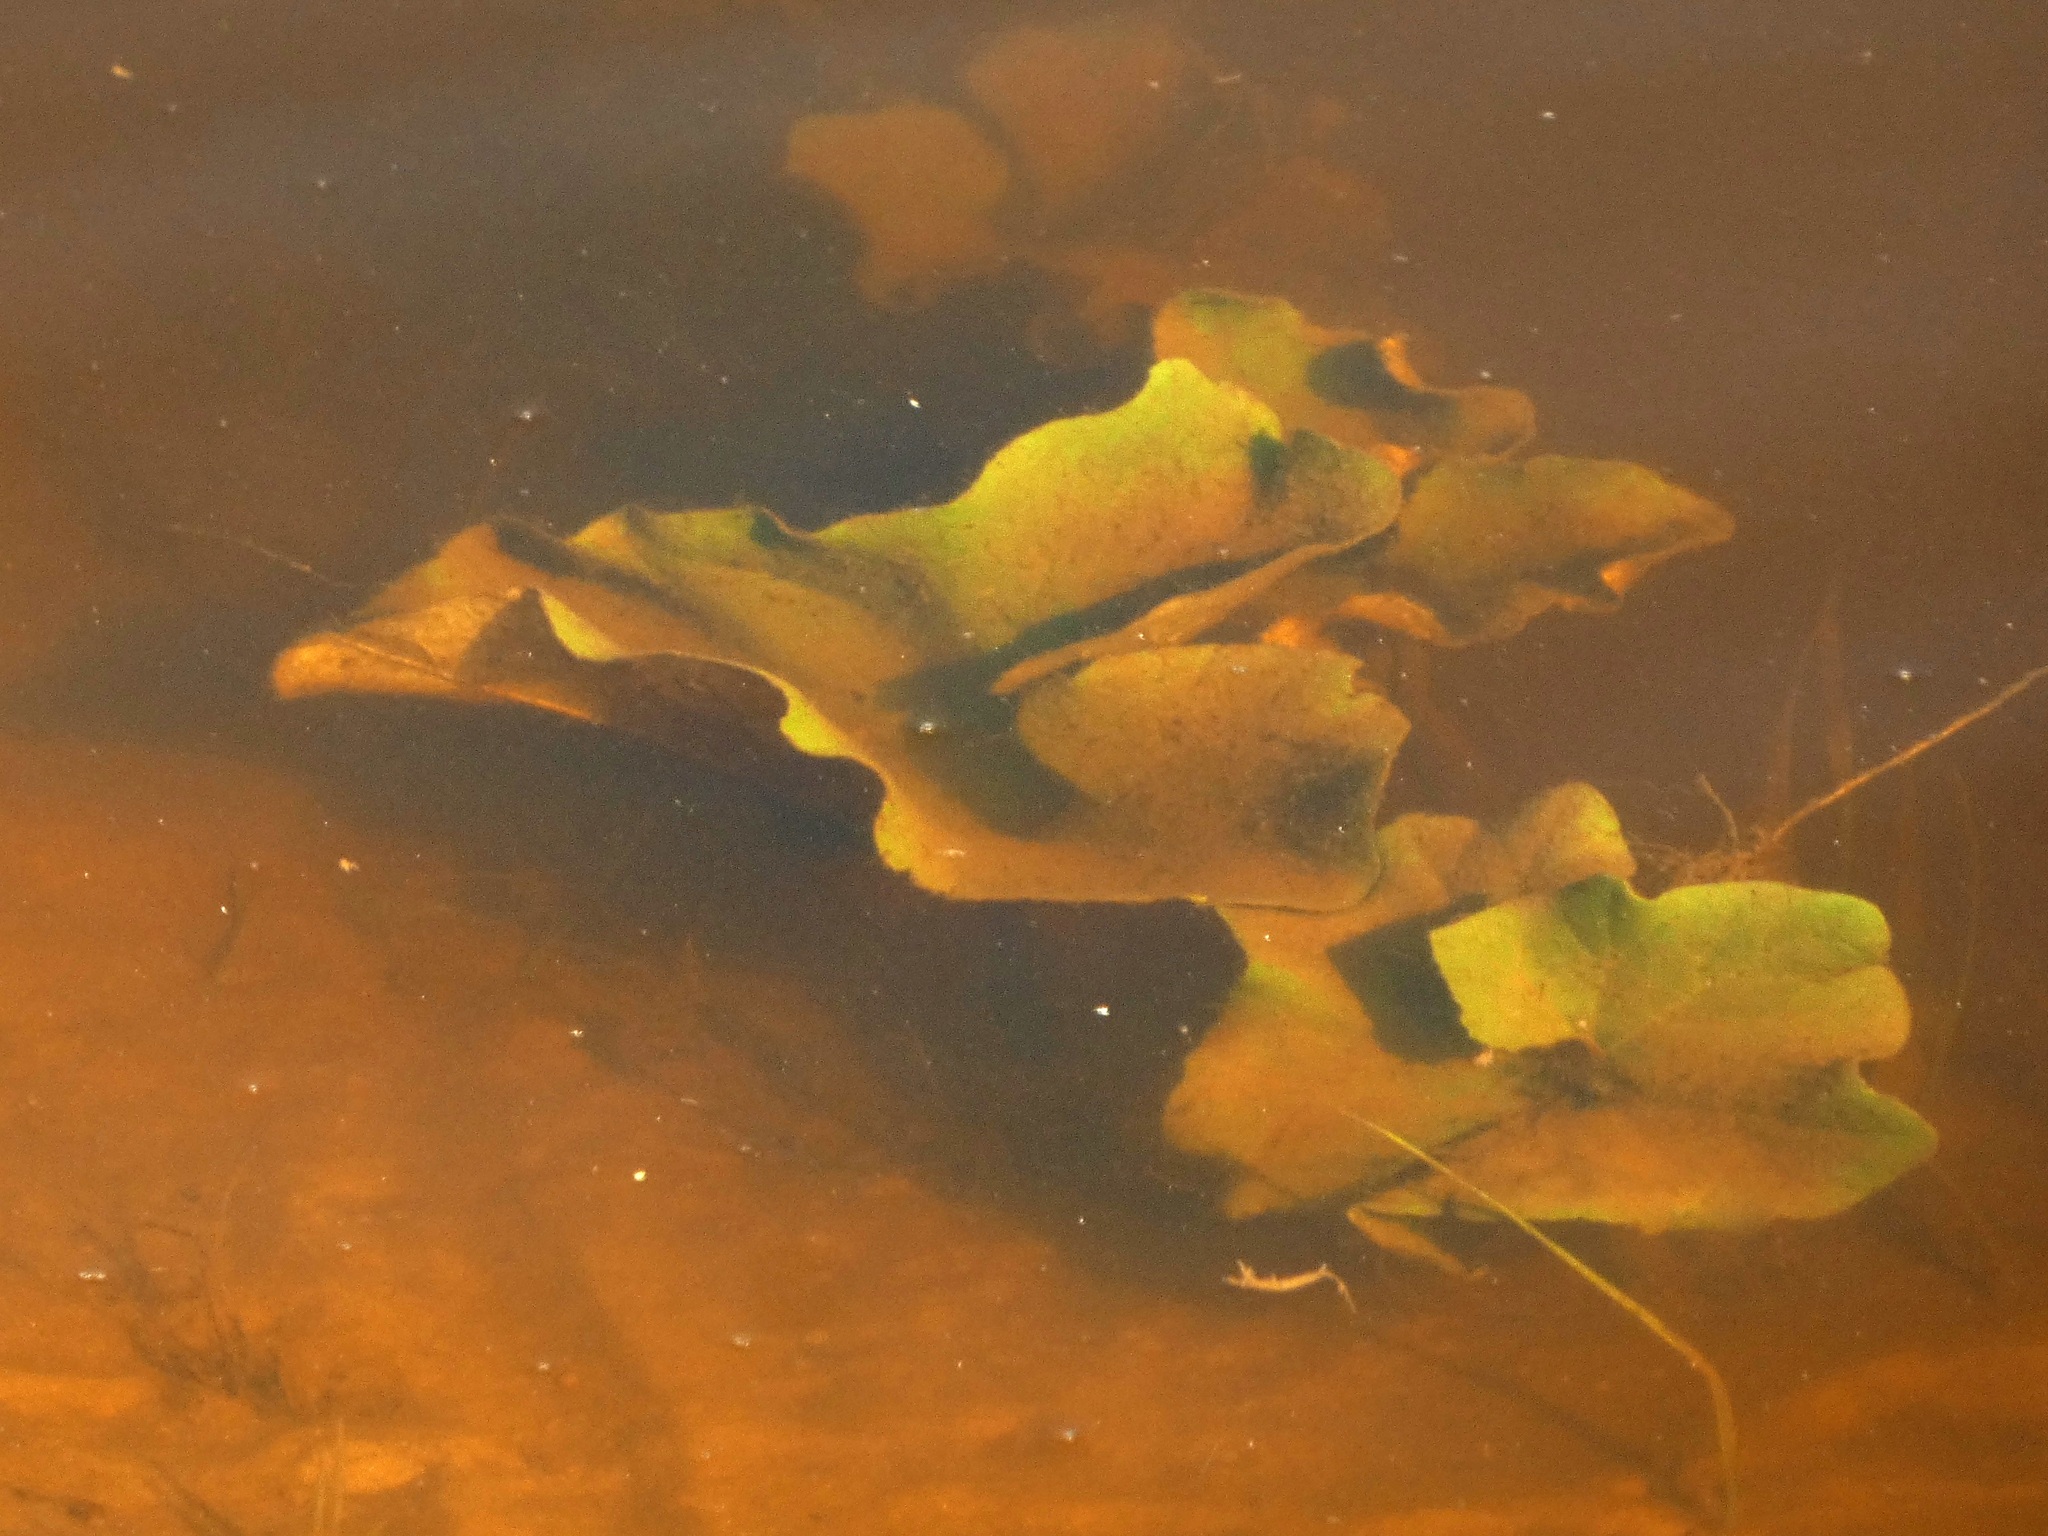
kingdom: Plantae
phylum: Tracheophyta
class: Magnoliopsida
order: Nymphaeales
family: Nymphaeaceae
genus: Nuphar
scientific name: Nuphar lutea
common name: Yellow water-lily
